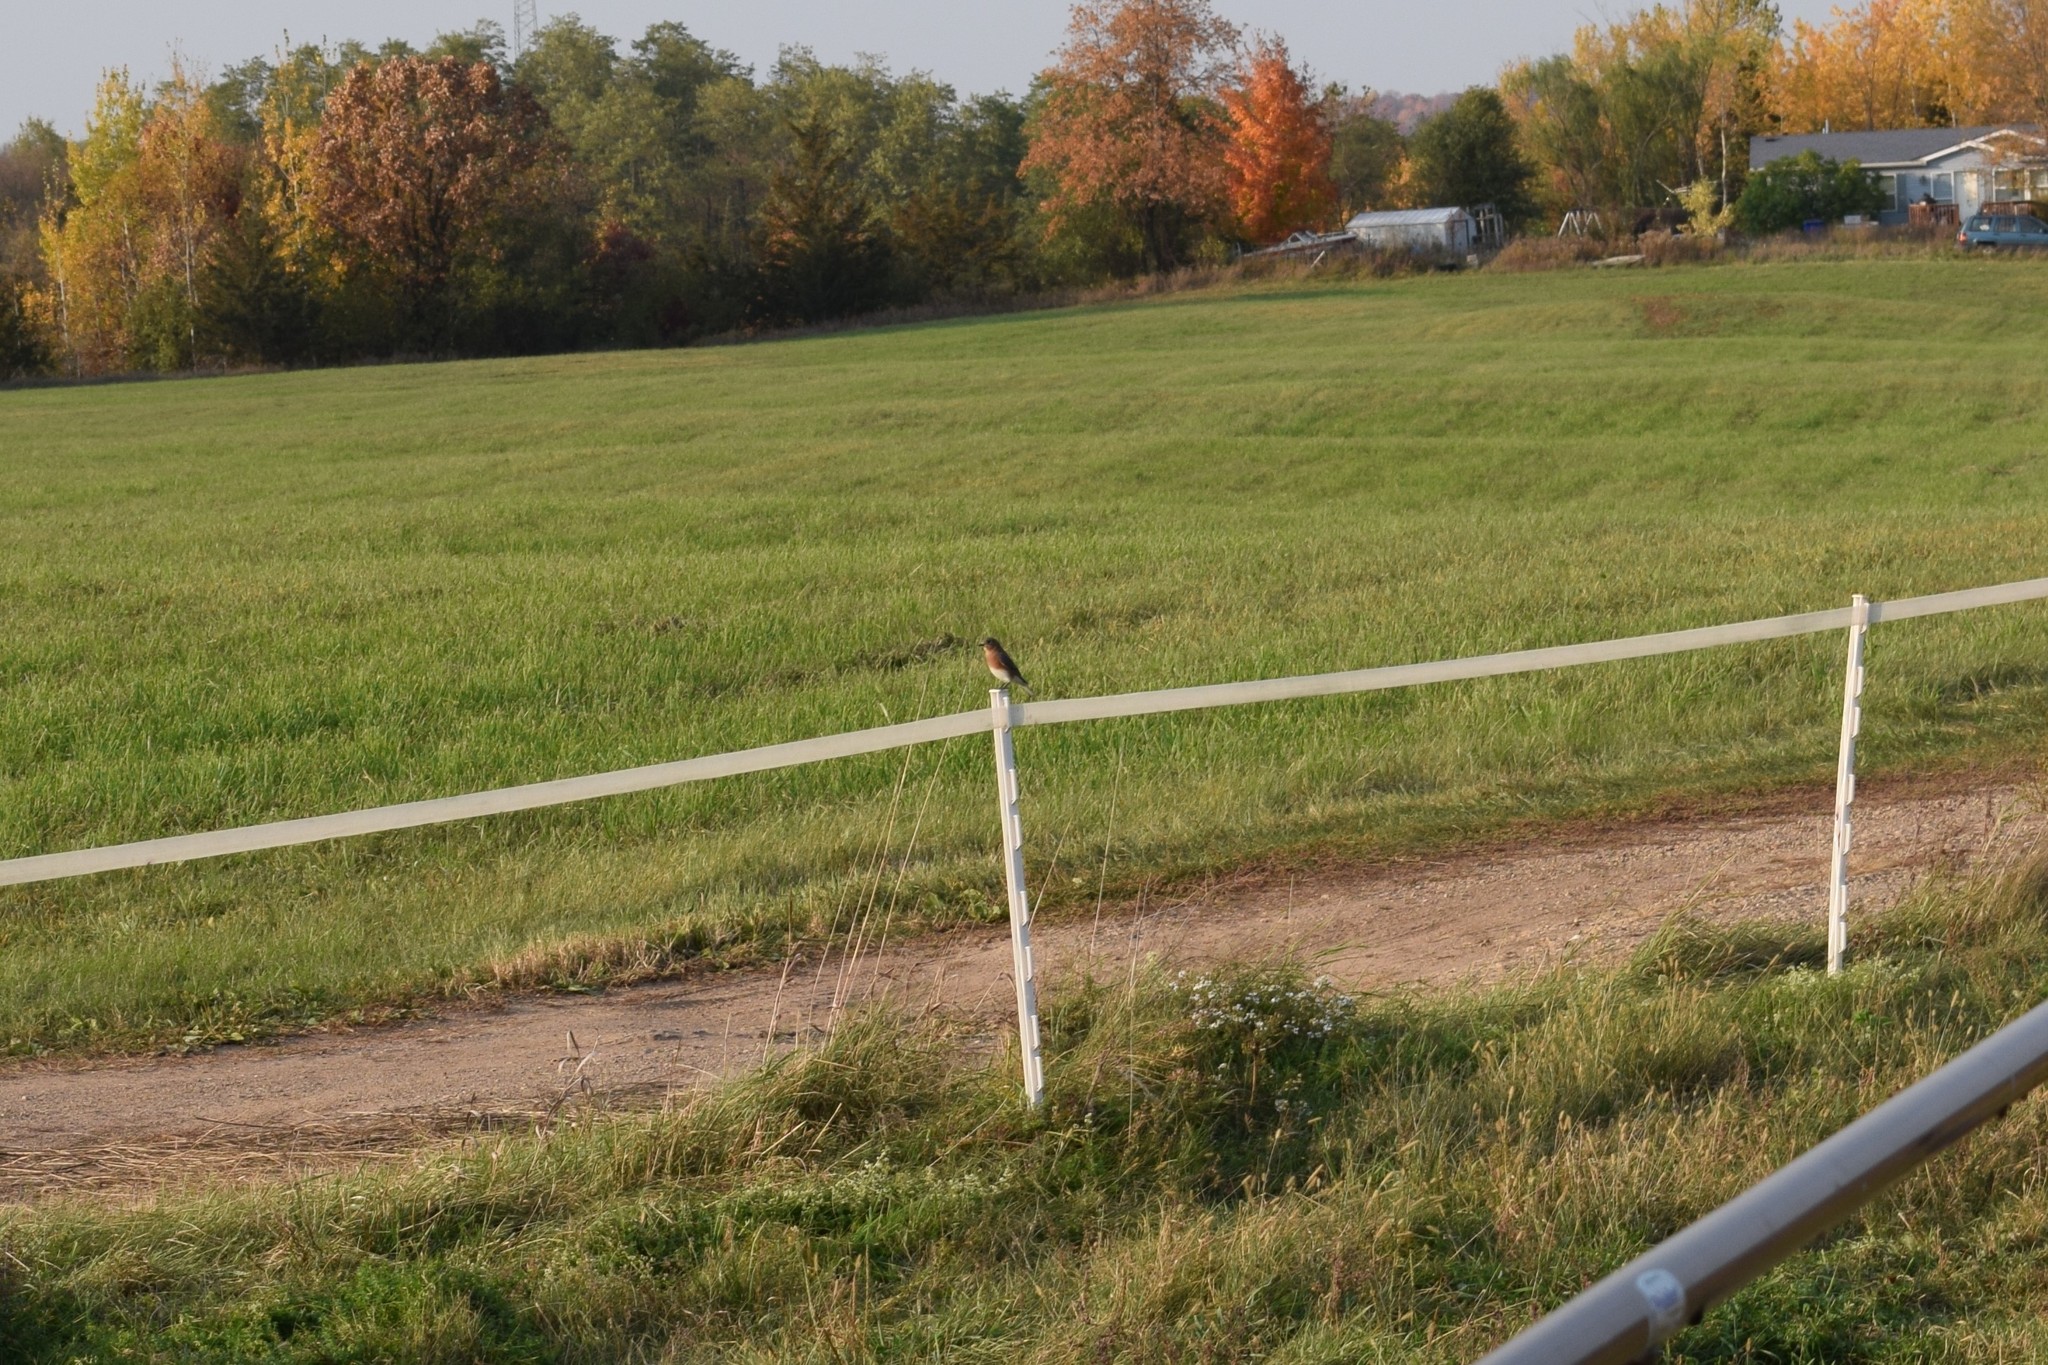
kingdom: Animalia
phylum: Chordata
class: Aves
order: Passeriformes
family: Turdidae
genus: Sialia
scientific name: Sialia sialis
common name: Eastern bluebird
